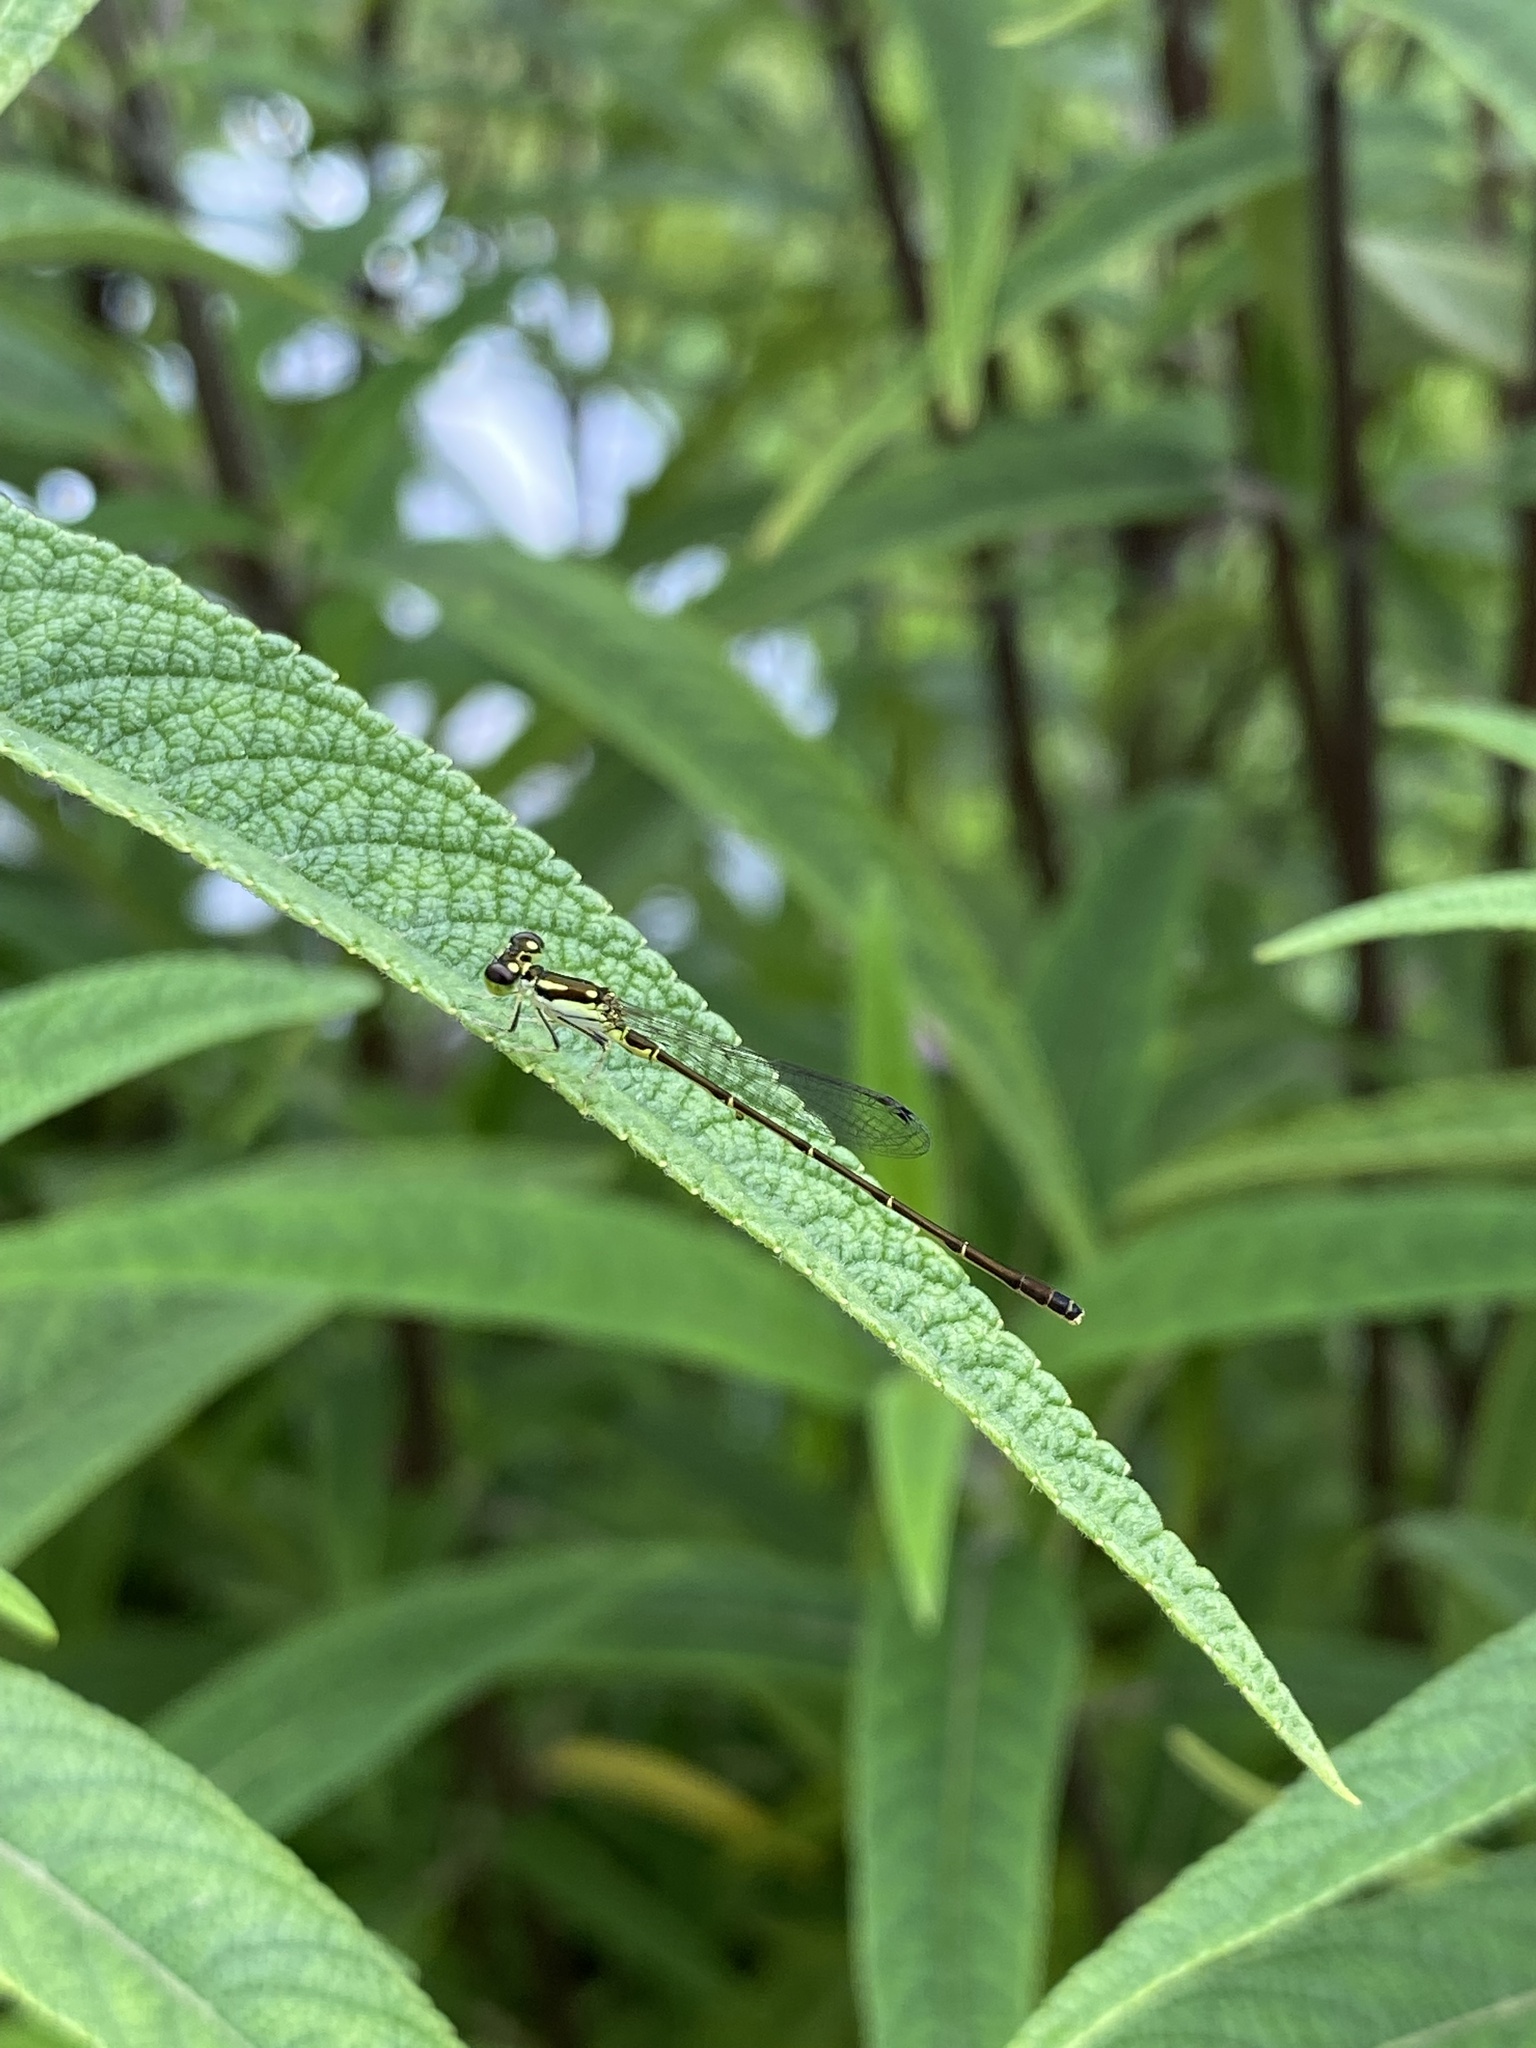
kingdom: Animalia
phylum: Arthropoda
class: Insecta
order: Odonata
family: Coenagrionidae
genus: Ischnura
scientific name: Ischnura posita
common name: Fragile forktail
